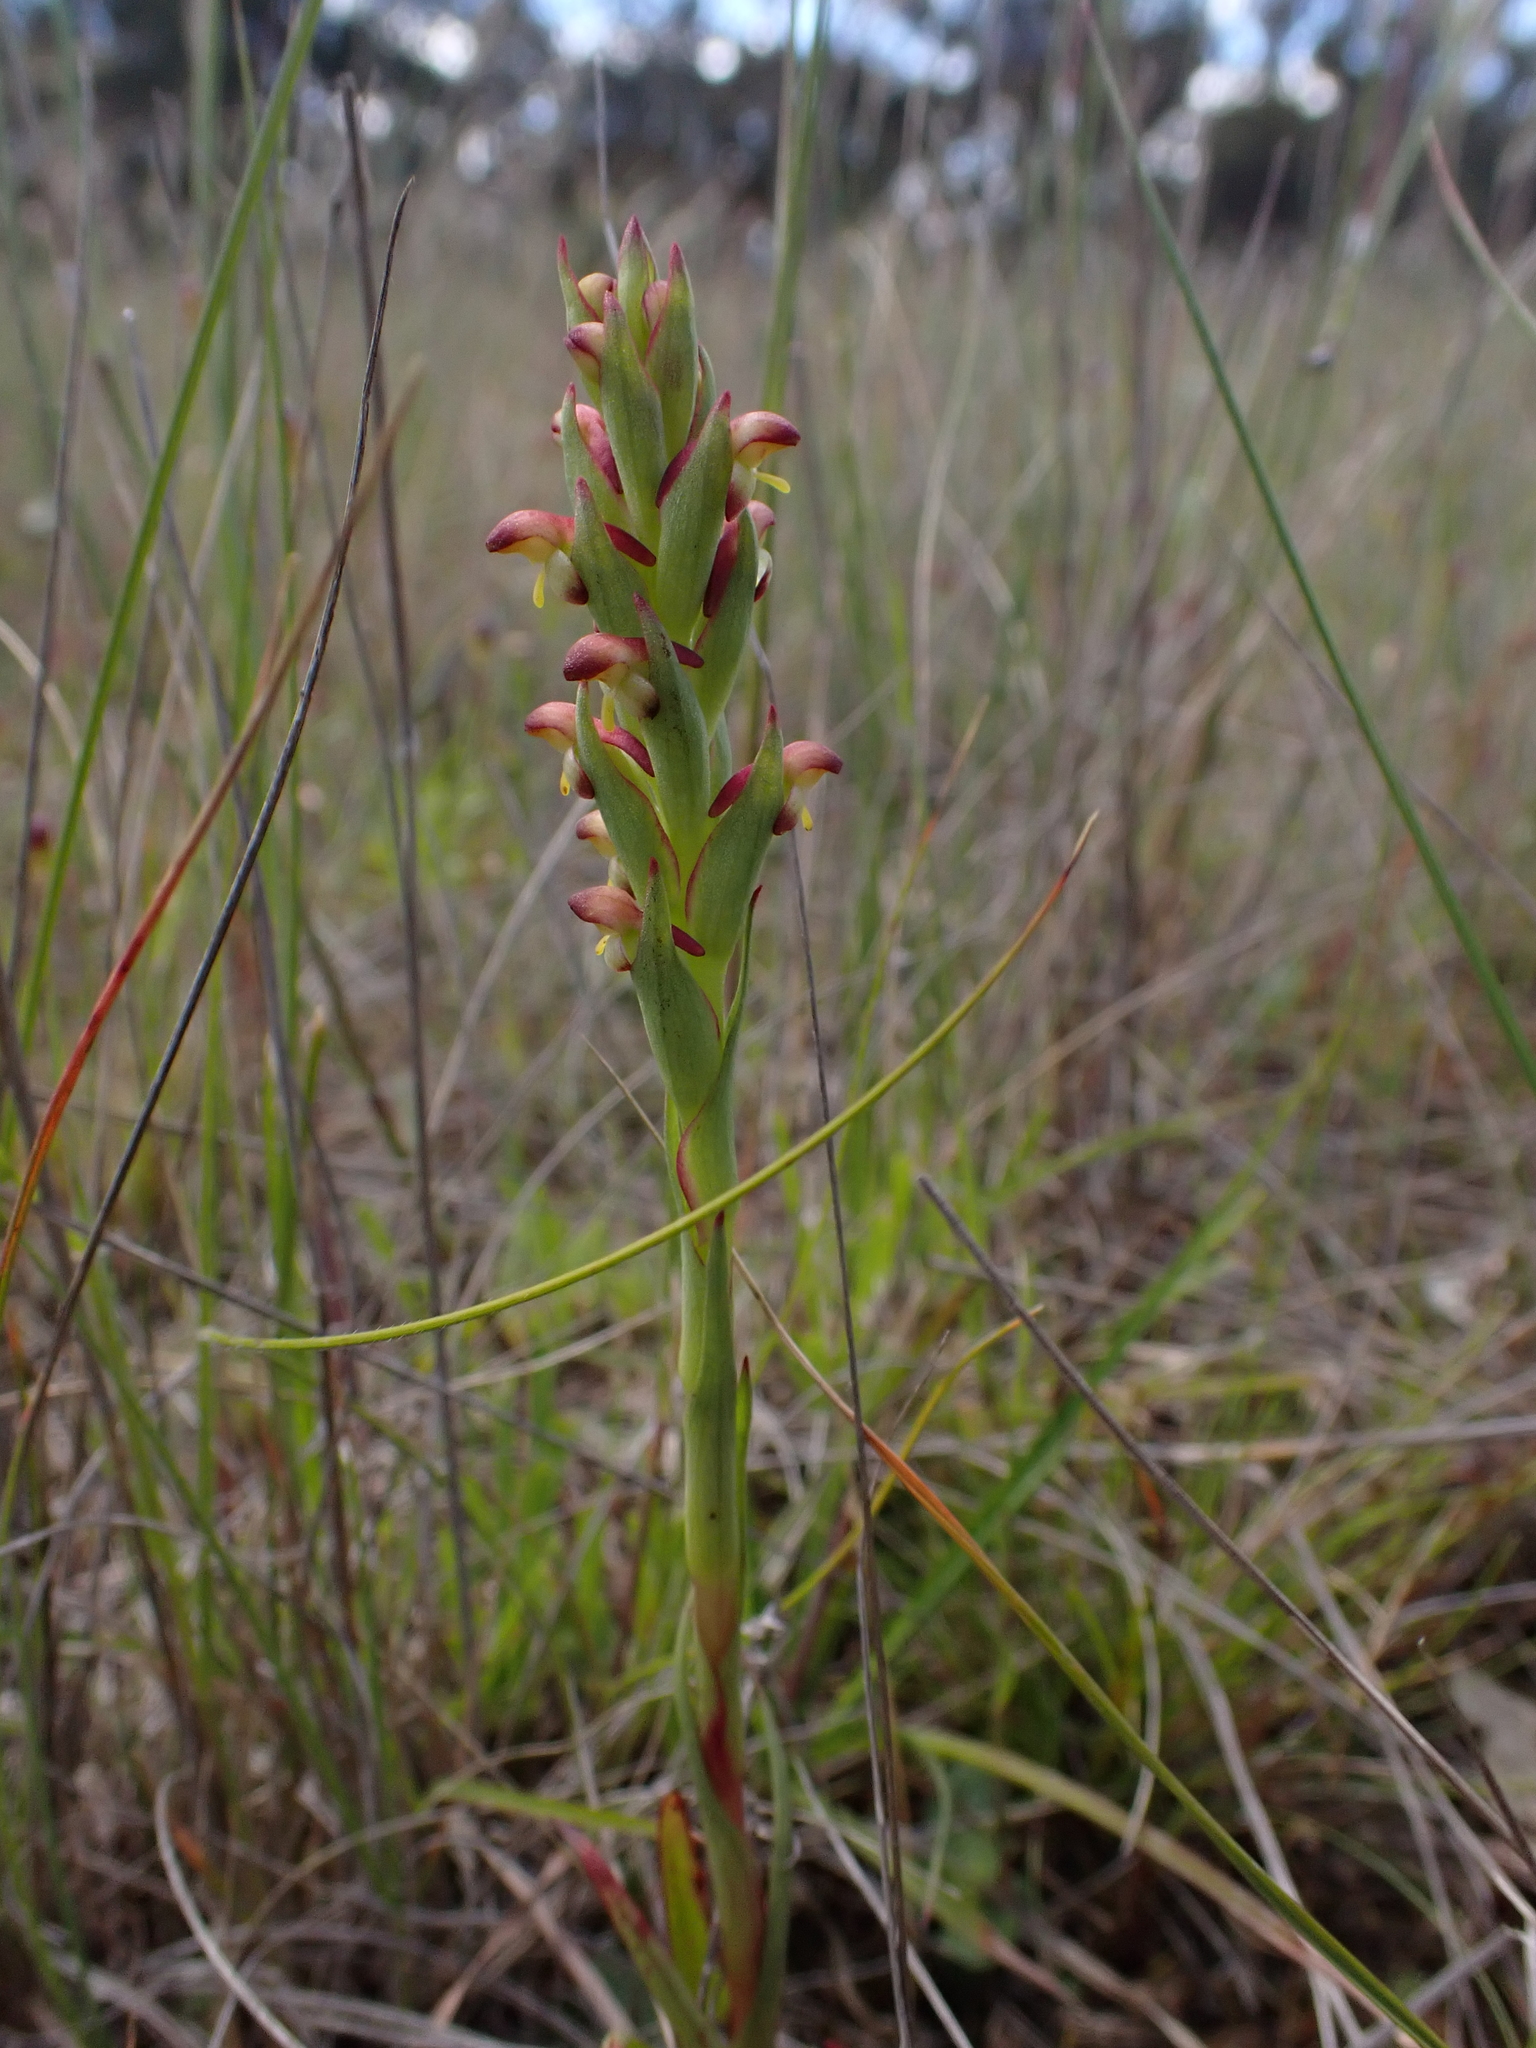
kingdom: Plantae
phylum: Tracheophyta
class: Liliopsida
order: Asparagales
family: Orchidaceae
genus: Disa
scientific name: Disa bracteata
